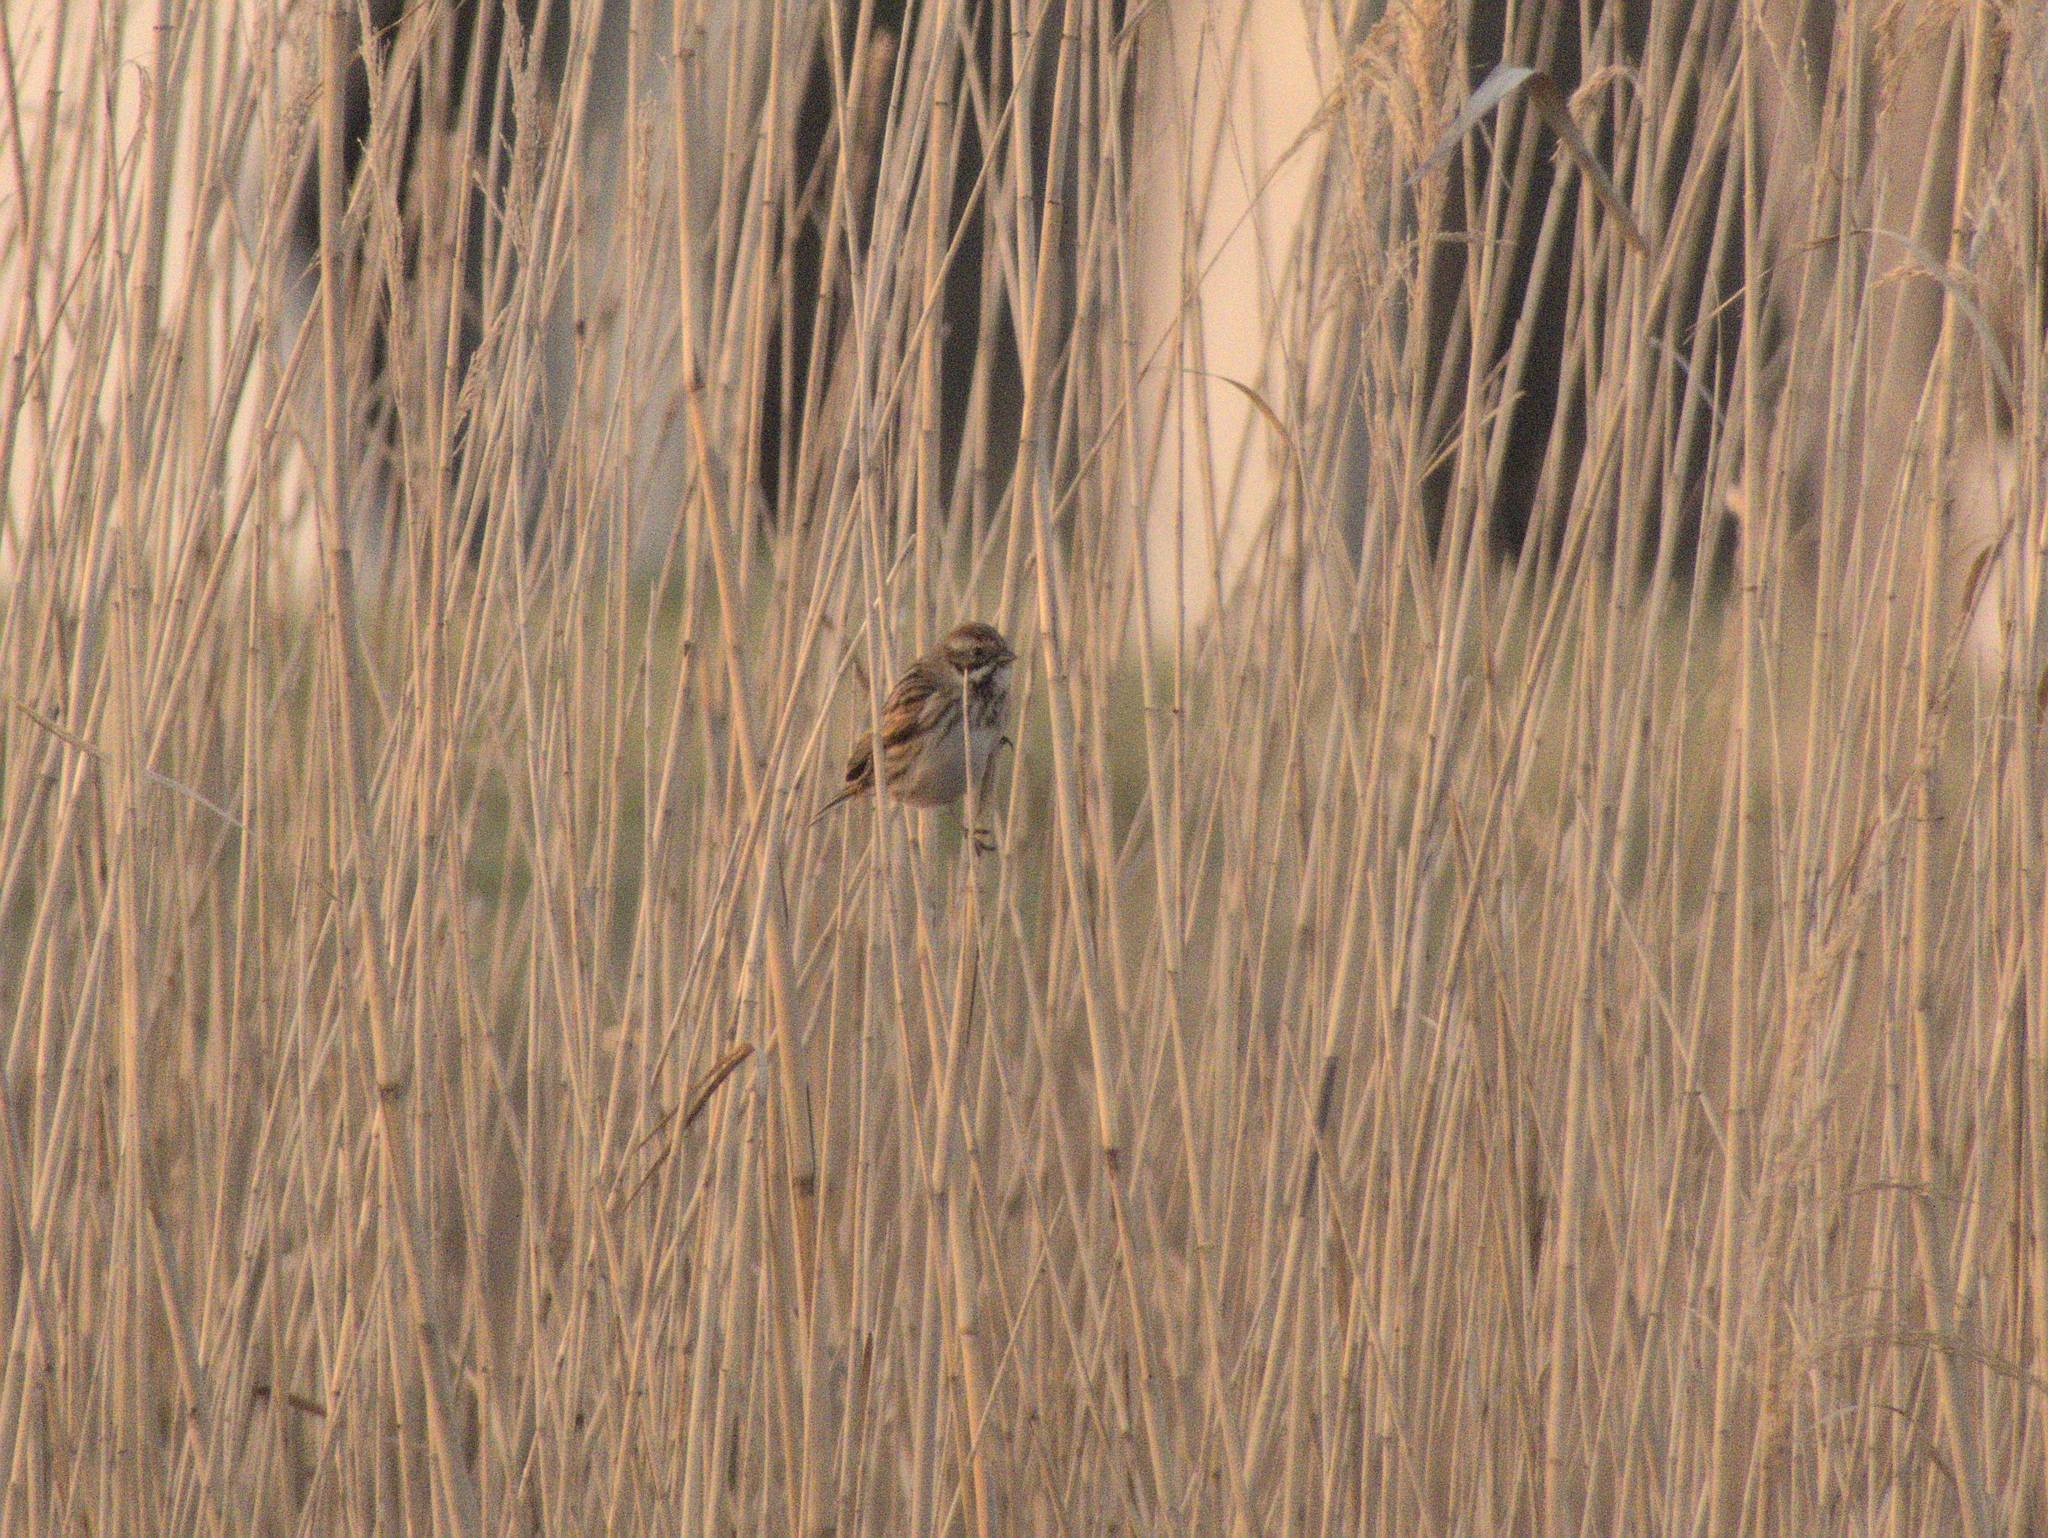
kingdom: Animalia
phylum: Chordata
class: Aves
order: Passeriformes
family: Emberizidae
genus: Emberiza
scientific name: Emberiza schoeniclus
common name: Reed bunting
